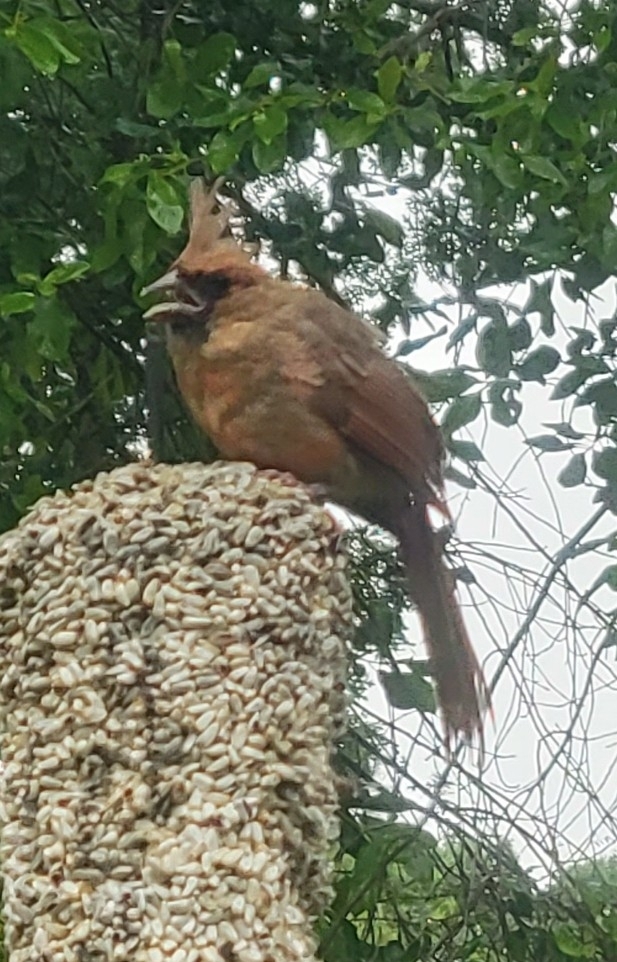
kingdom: Animalia
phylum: Chordata
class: Aves
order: Passeriformes
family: Cardinalidae
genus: Cardinalis
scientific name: Cardinalis cardinalis
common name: Northern cardinal
